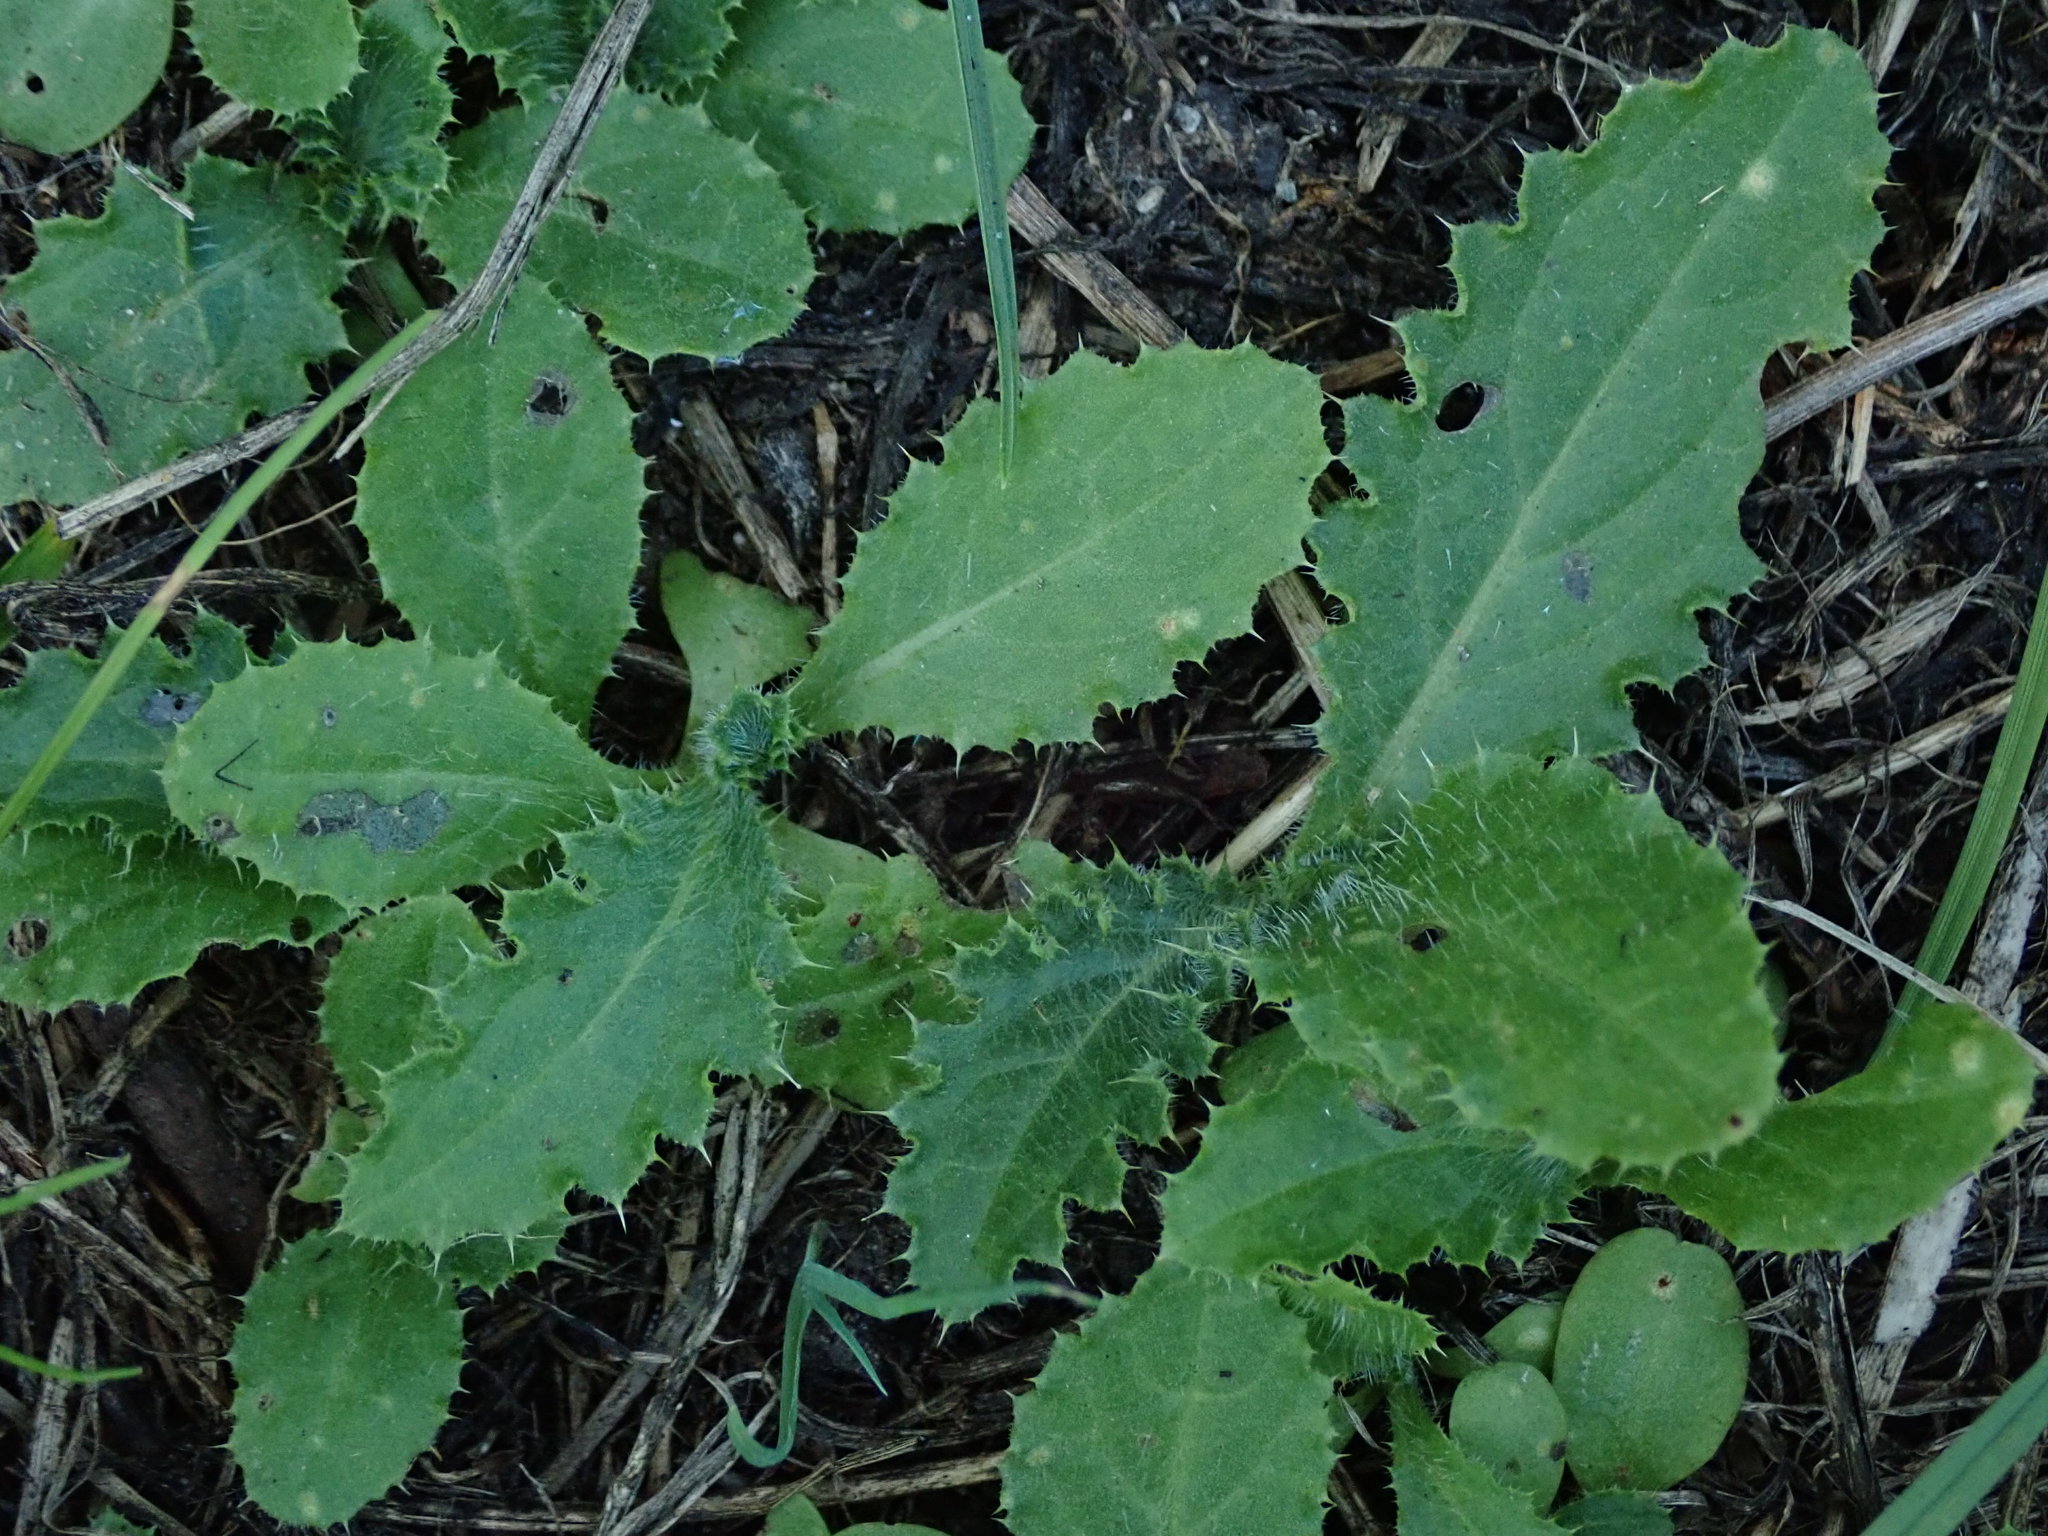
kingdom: Plantae
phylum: Tracheophyta
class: Magnoliopsida
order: Asterales
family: Asteraceae
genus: Cirsium
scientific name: Cirsium arvense
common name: Creeping thistle
